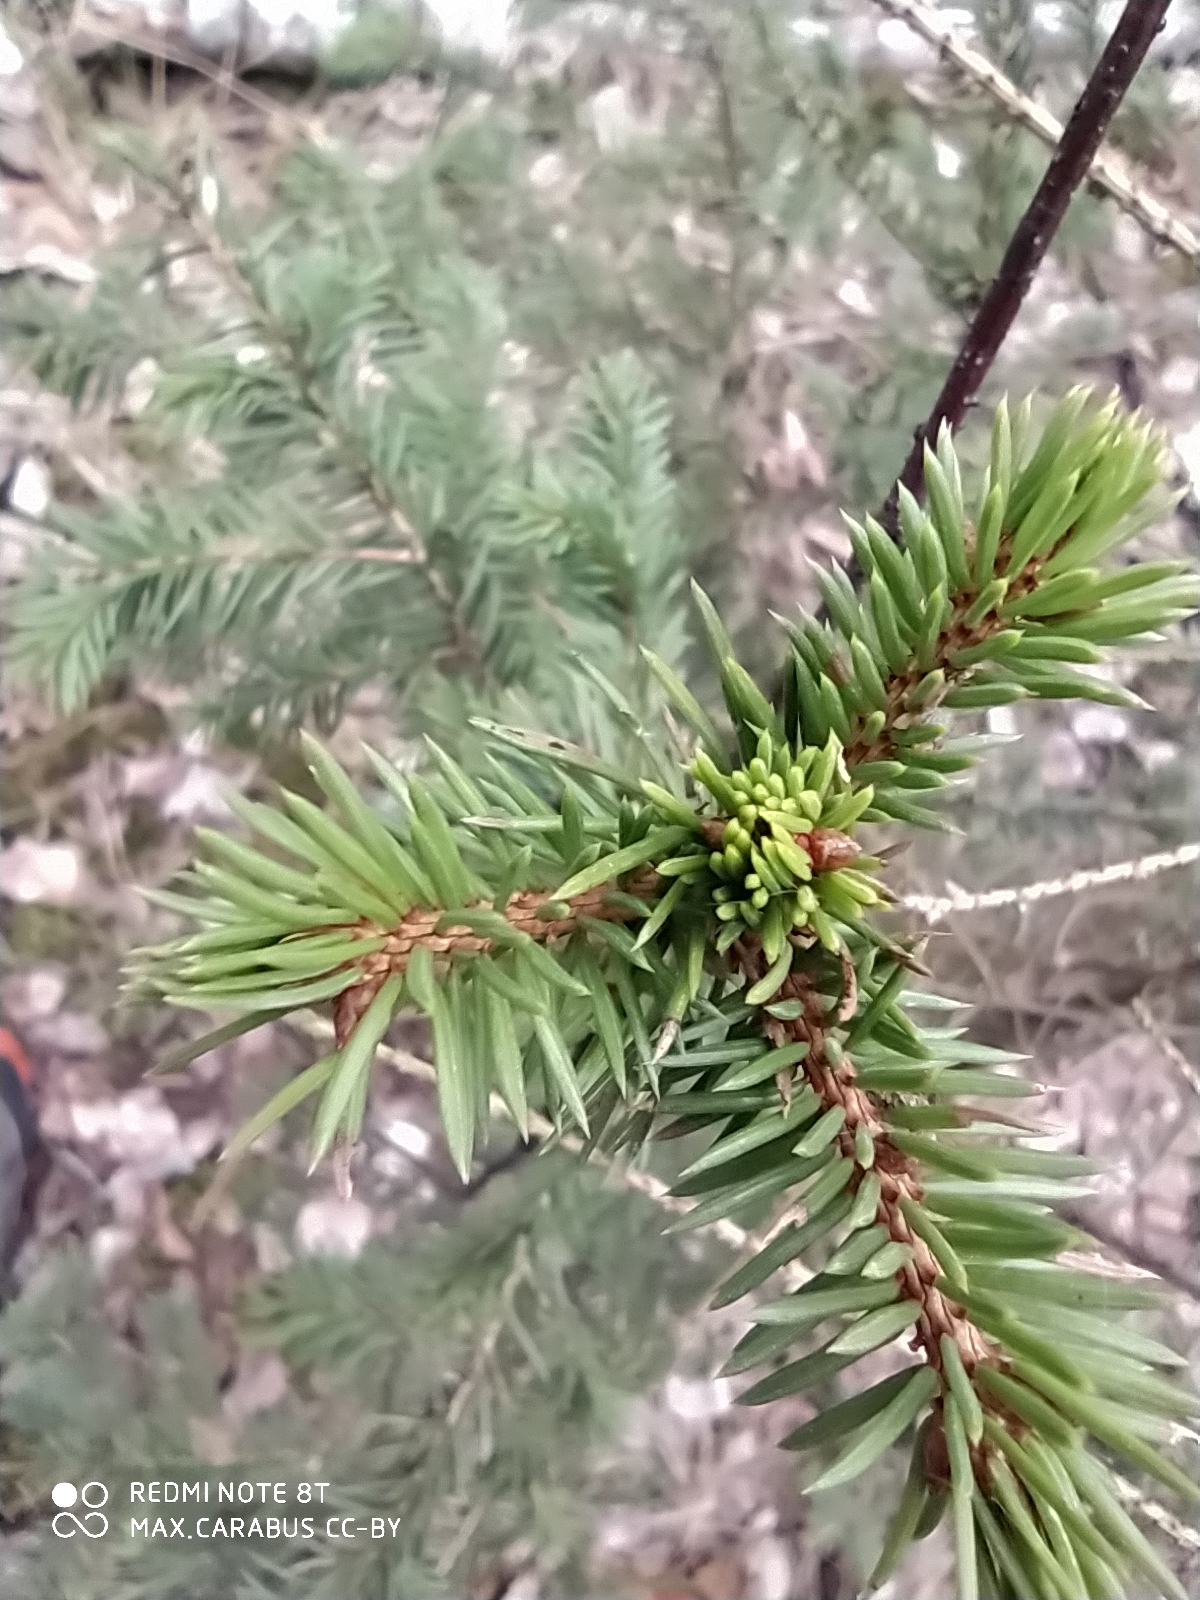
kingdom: Plantae
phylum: Tracheophyta
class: Pinopsida
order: Pinales
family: Pinaceae
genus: Picea
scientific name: Picea abies
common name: Norway spruce
